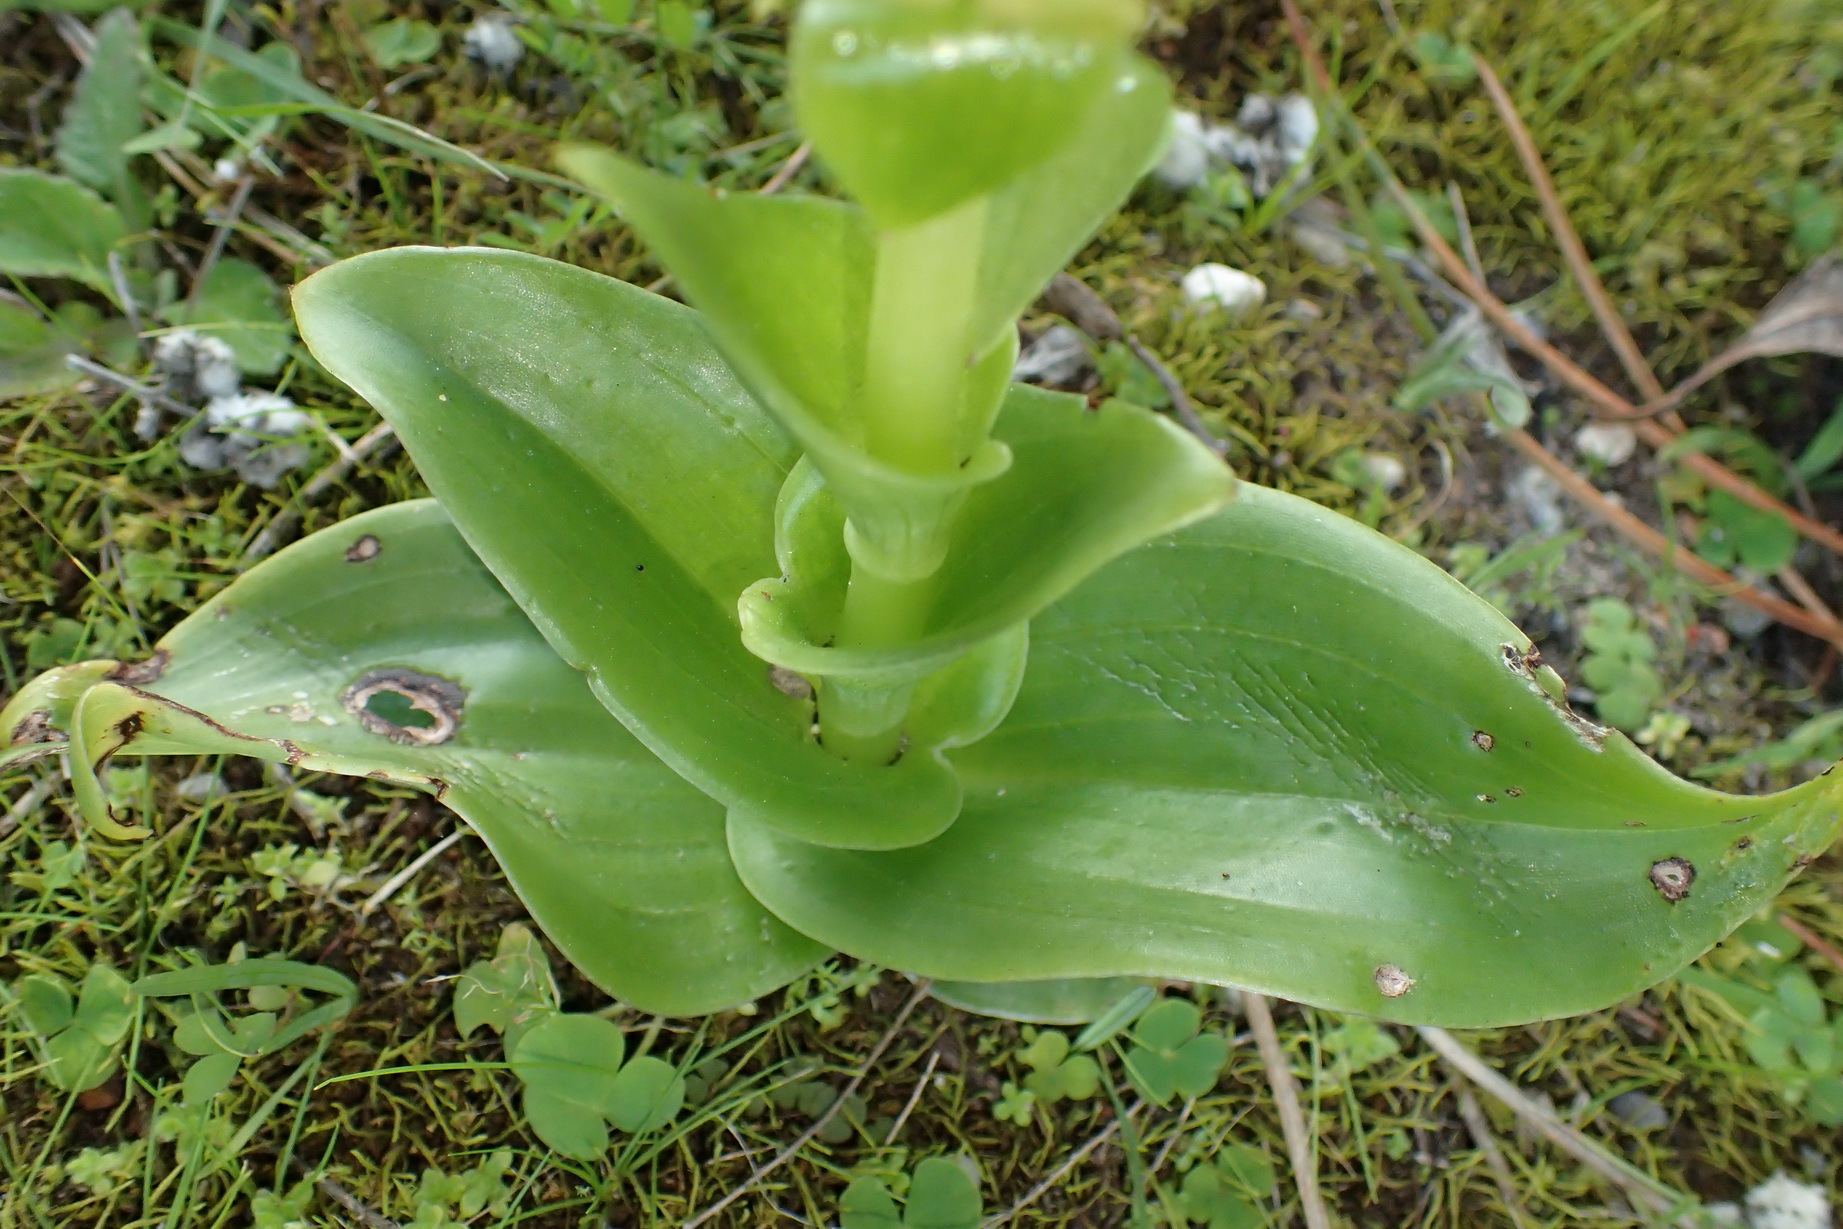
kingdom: Plantae
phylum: Tracheophyta
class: Liliopsida
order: Asparagales
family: Orchidaceae
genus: Satyrium
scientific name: Satyrium odorum
